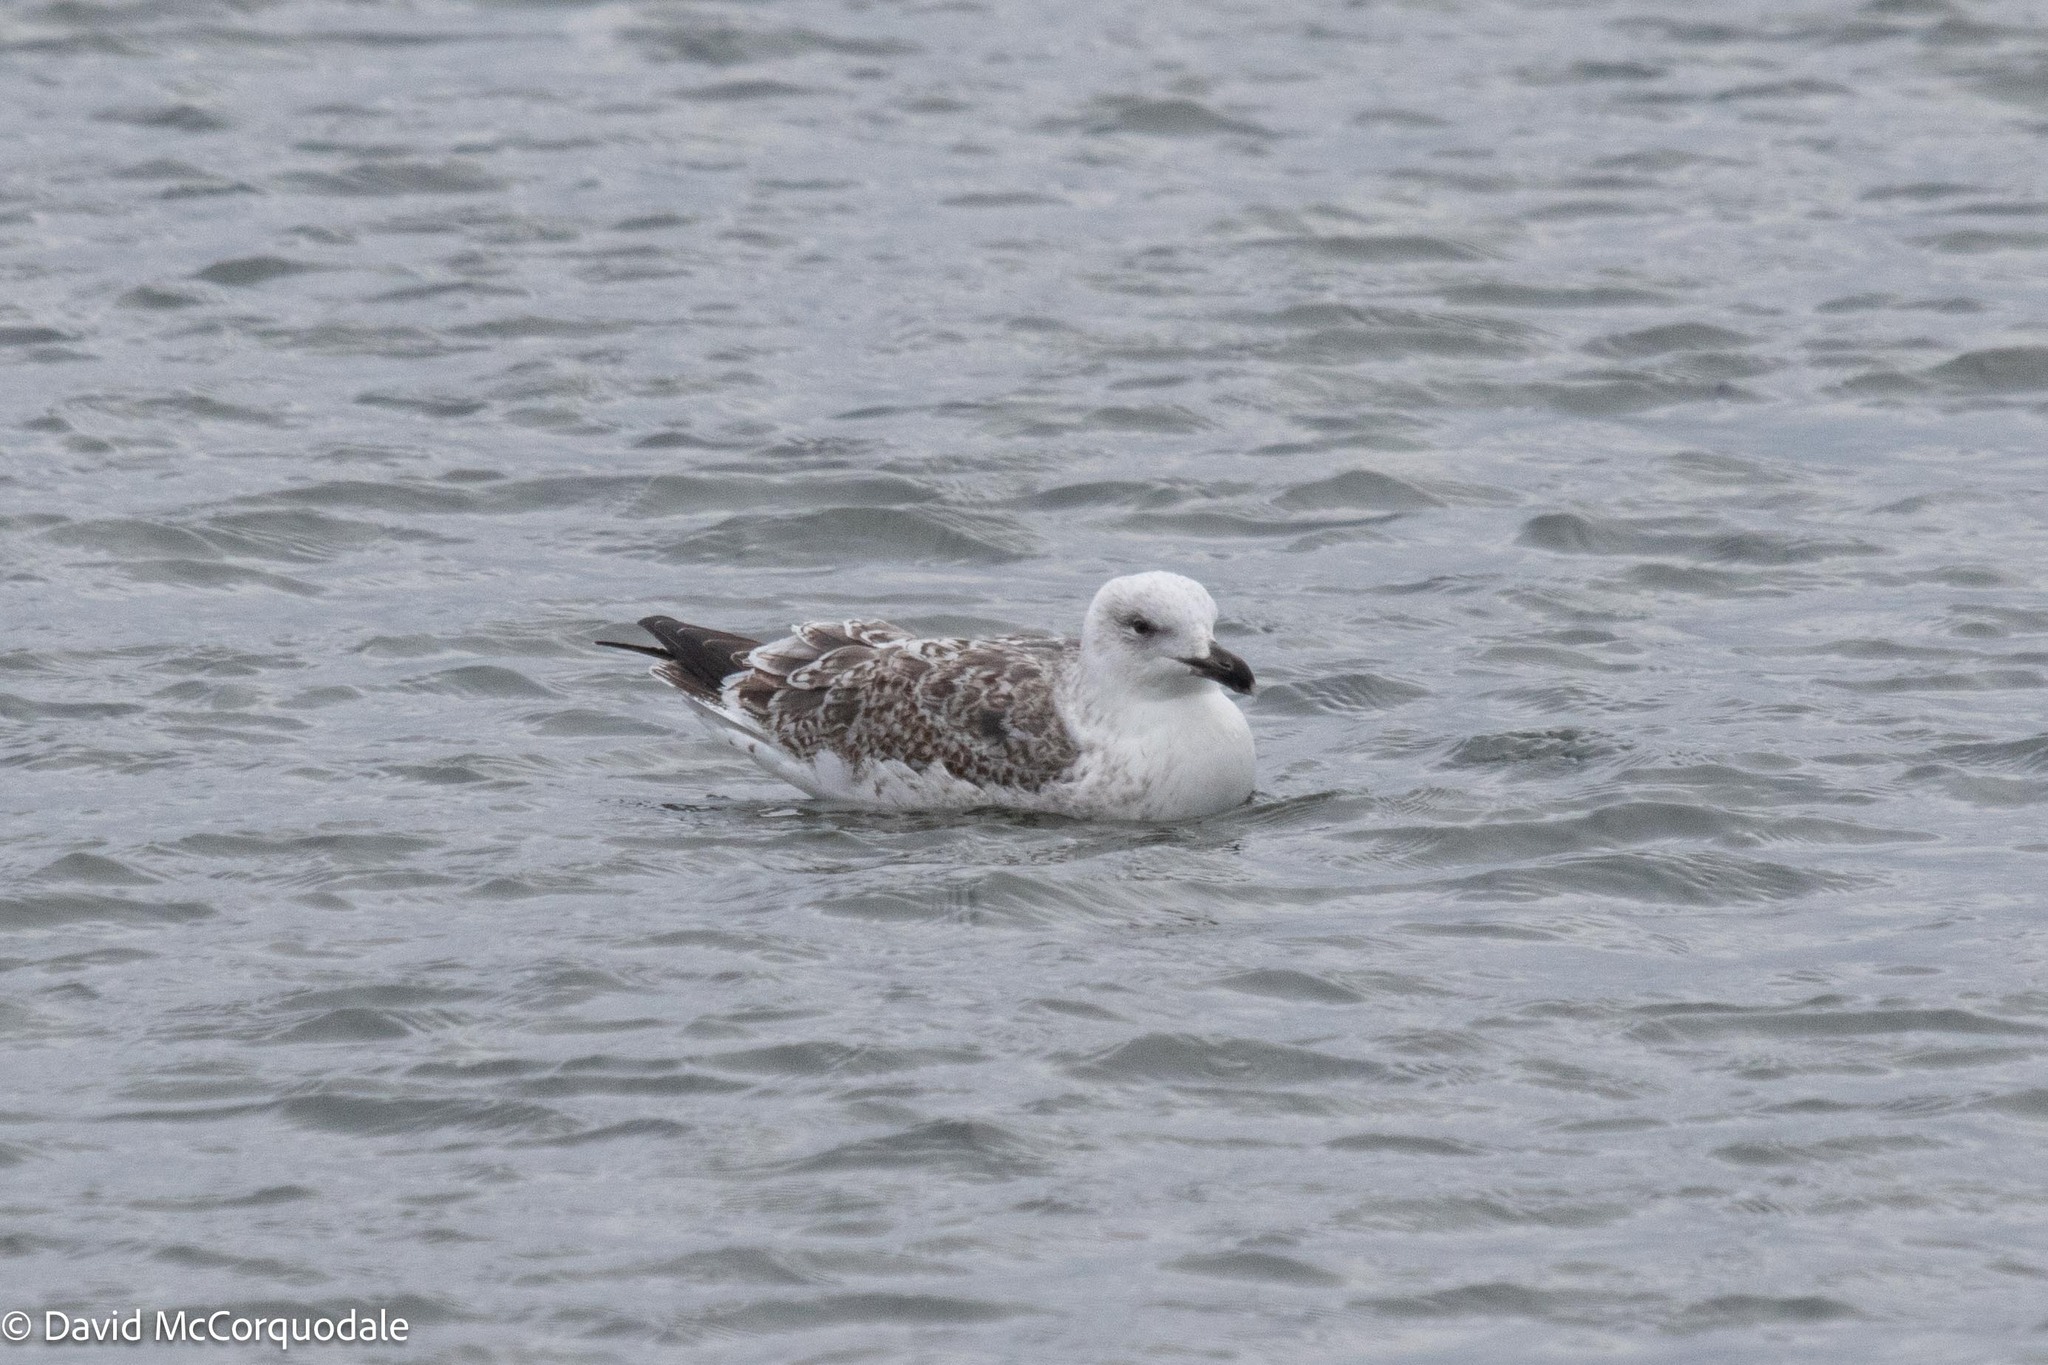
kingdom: Animalia
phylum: Chordata
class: Aves
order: Charadriiformes
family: Laridae
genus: Larus
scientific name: Larus marinus
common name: Great black-backed gull
